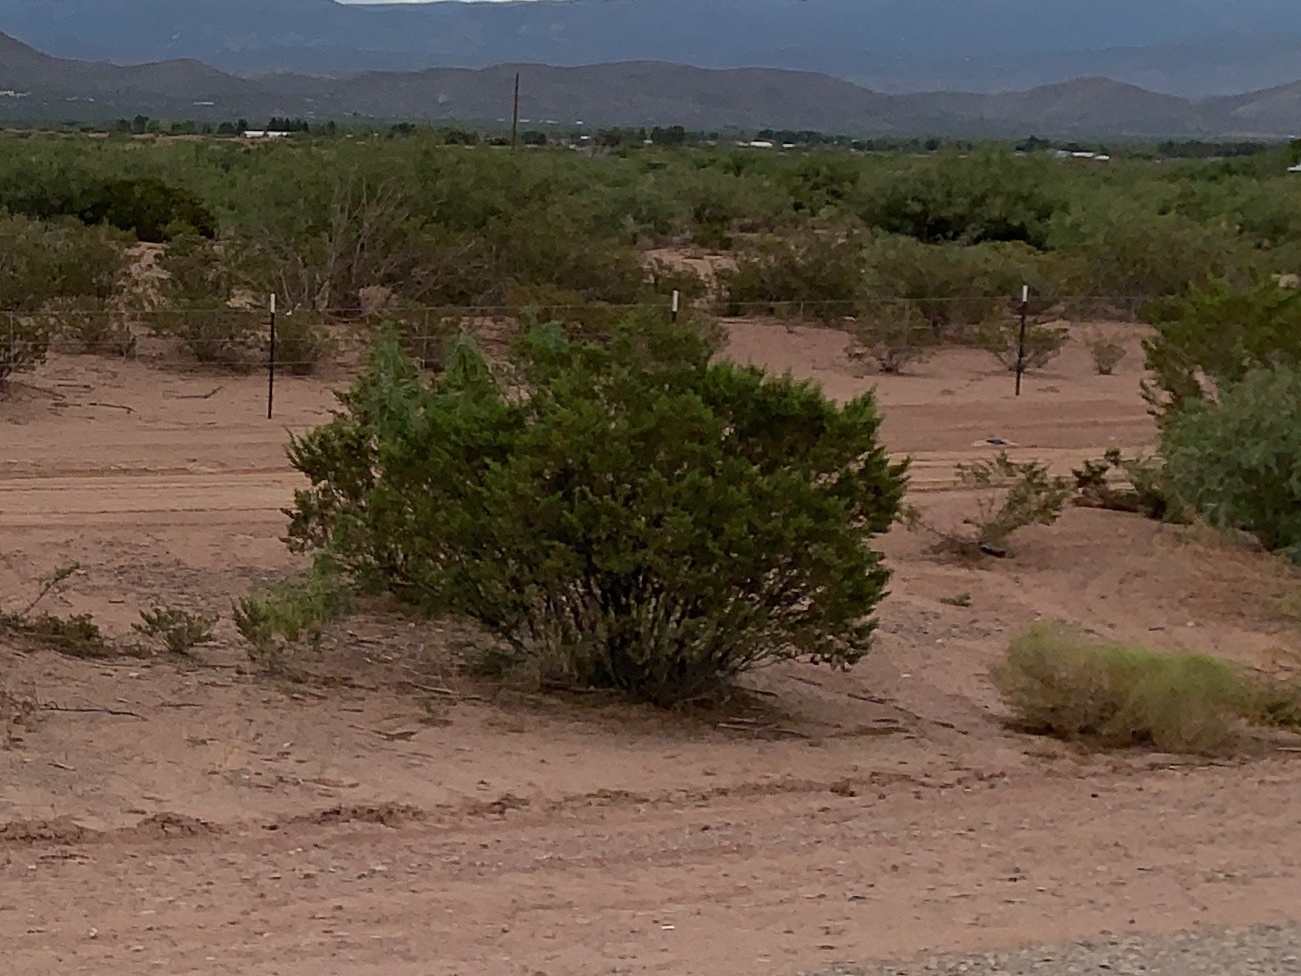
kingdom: Plantae
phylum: Tracheophyta
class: Magnoliopsida
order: Zygophyllales
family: Zygophyllaceae
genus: Larrea
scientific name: Larrea tridentata
